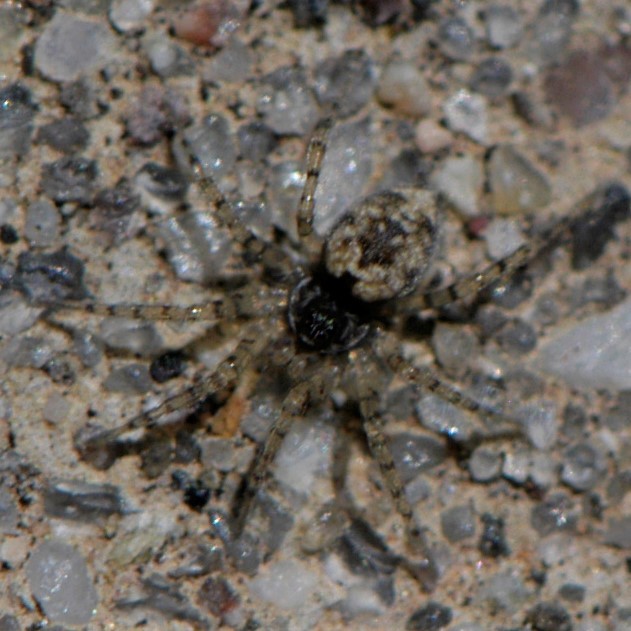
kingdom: Animalia
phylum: Arthropoda
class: Arachnida
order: Araneae
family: Oecobiidae
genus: Oecobius
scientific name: Oecobius
